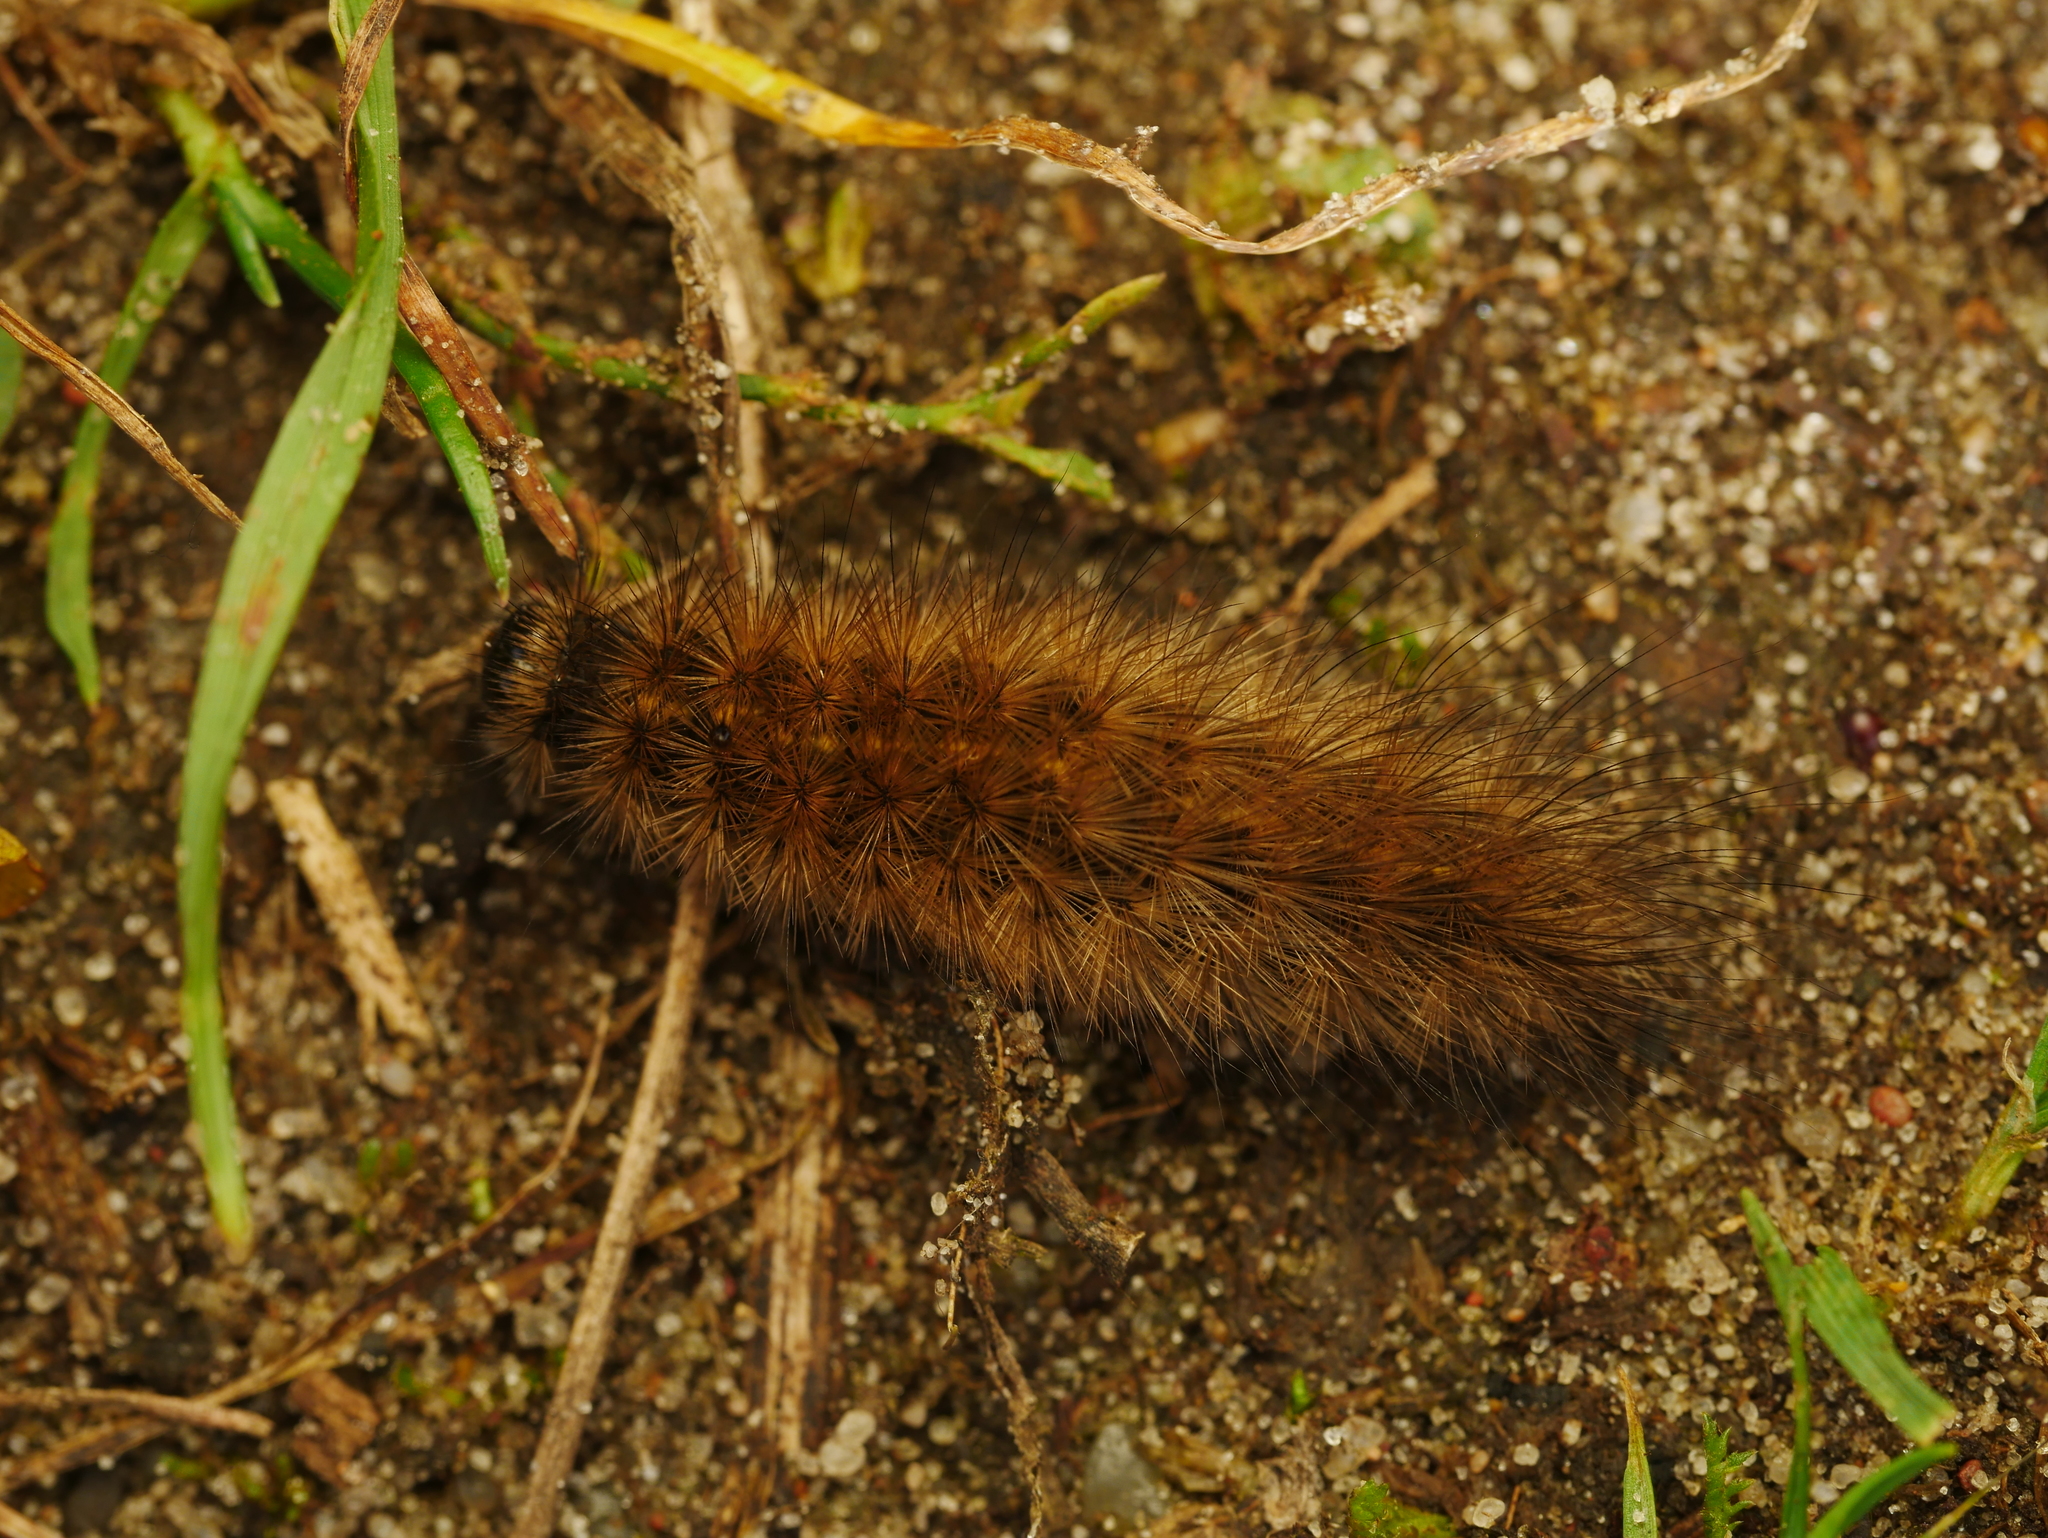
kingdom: Animalia
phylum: Arthropoda
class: Insecta
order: Lepidoptera
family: Erebidae
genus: Phragmatobia
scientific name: Phragmatobia fuliginosa
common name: Ruby tiger
